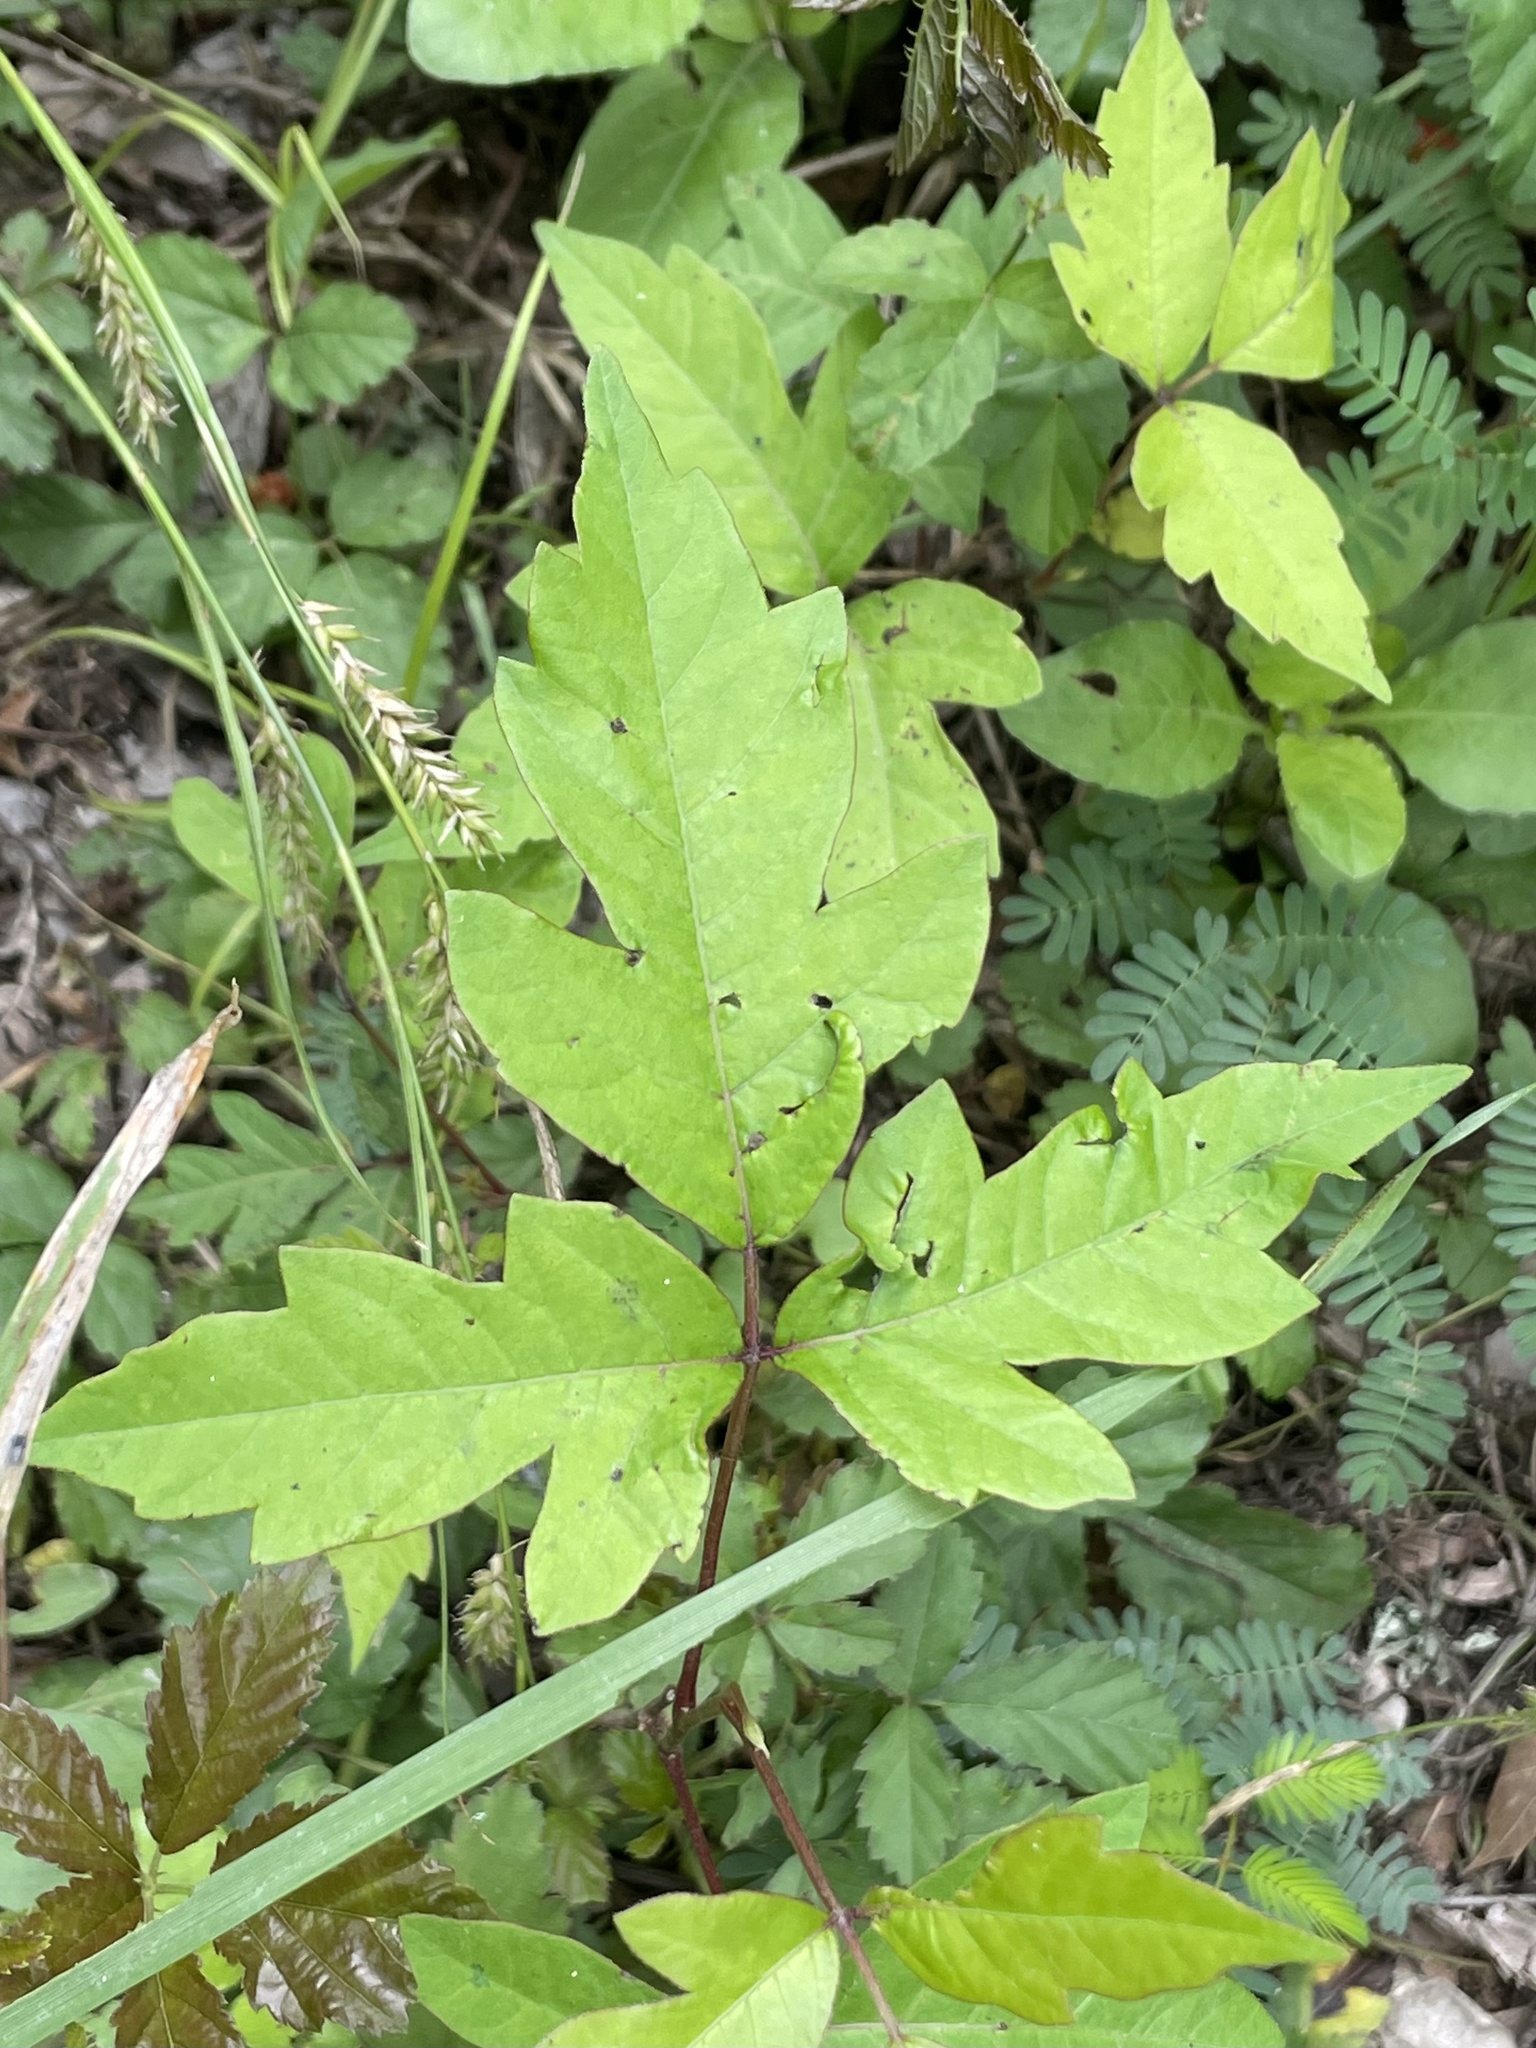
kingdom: Plantae
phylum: Tracheophyta
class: Magnoliopsida
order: Sapindales
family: Anacardiaceae
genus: Toxicodendron
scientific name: Toxicodendron radicans
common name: Poison ivy
